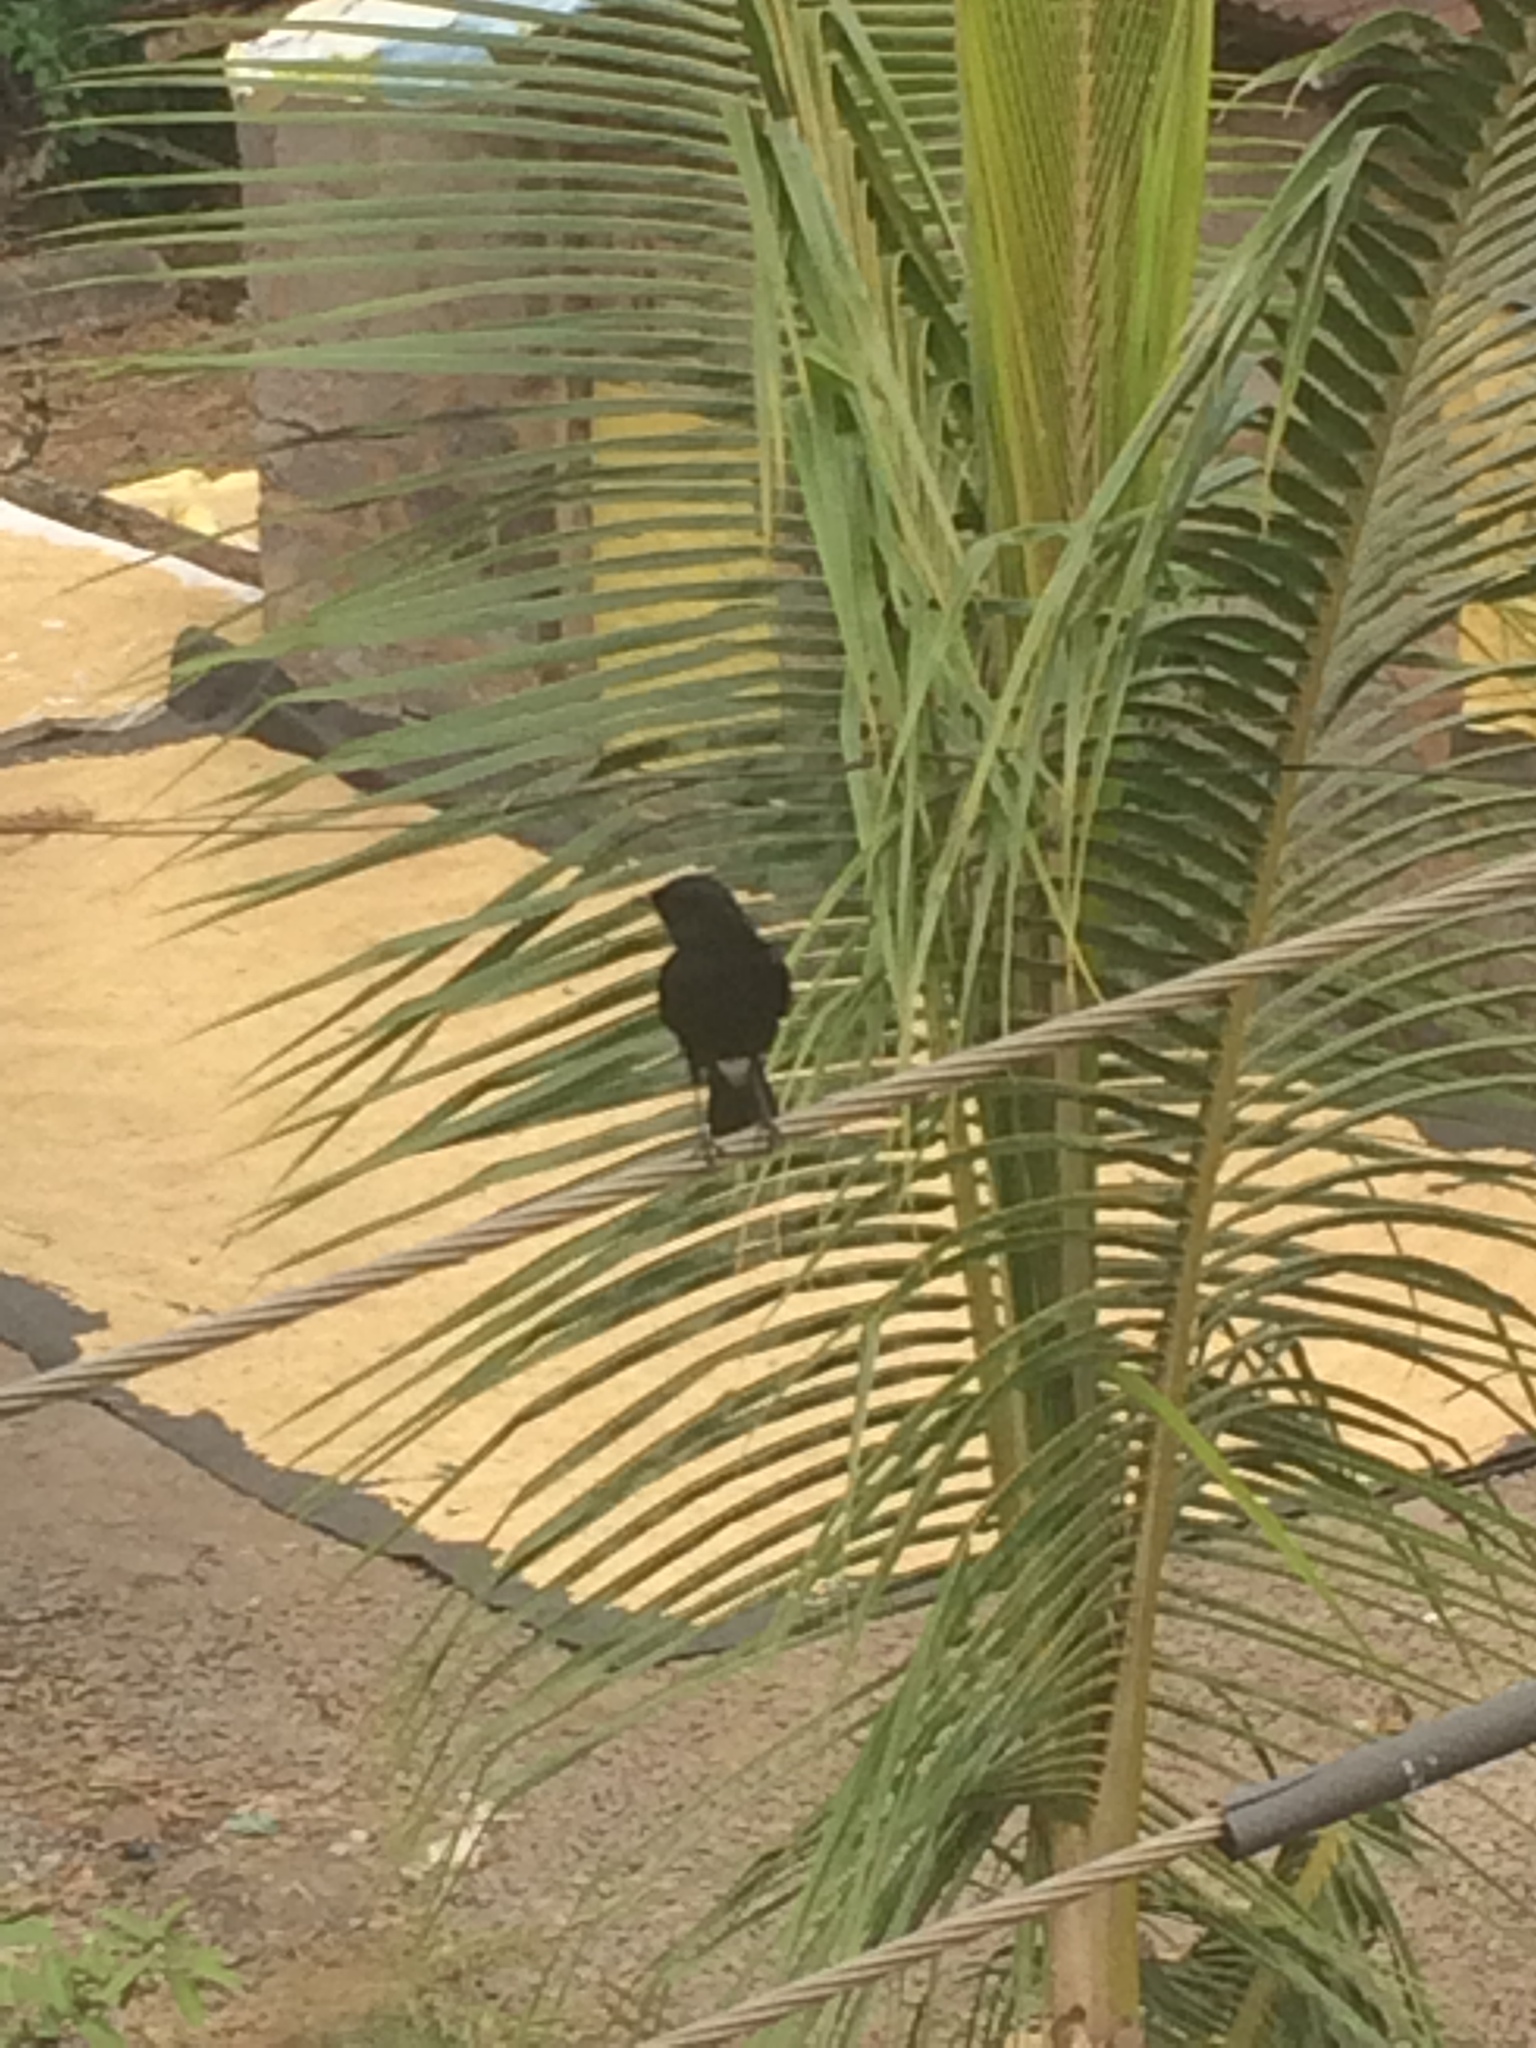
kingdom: Animalia
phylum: Chordata
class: Aves
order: Passeriformes
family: Muscicapidae
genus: Saxicola
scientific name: Saxicola caprata
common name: Pied bush chat
